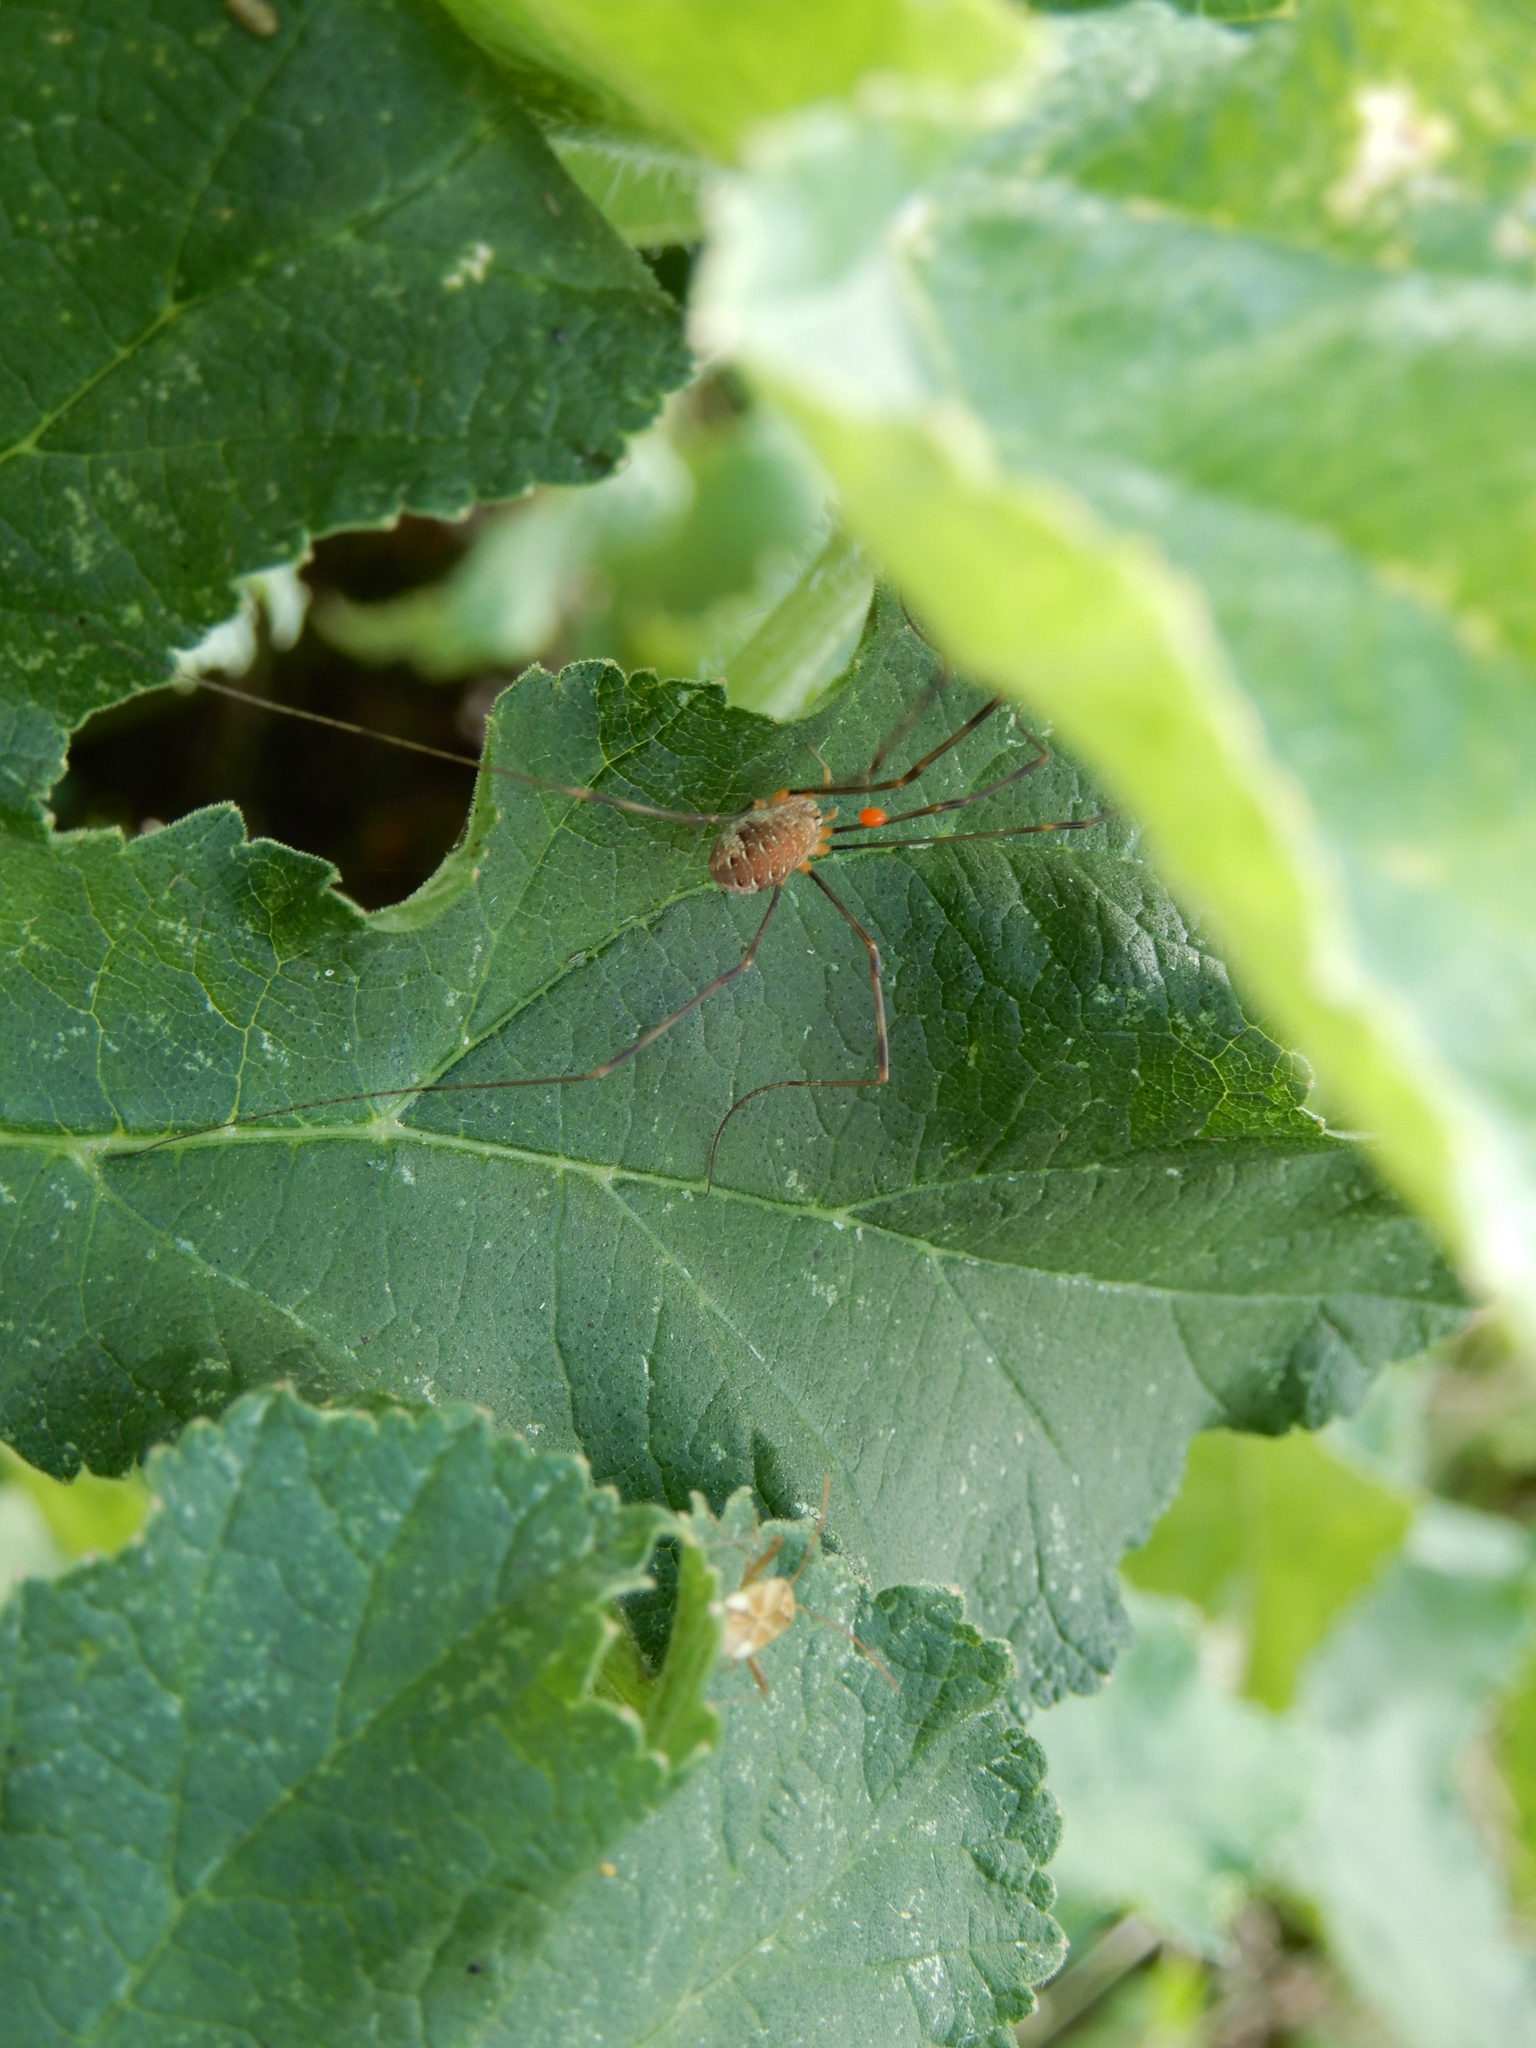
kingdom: Animalia
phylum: Arthropoda
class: Arachnida
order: Opiliones
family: Phalangiidae
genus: Opilio
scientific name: Opilio canestrinii
